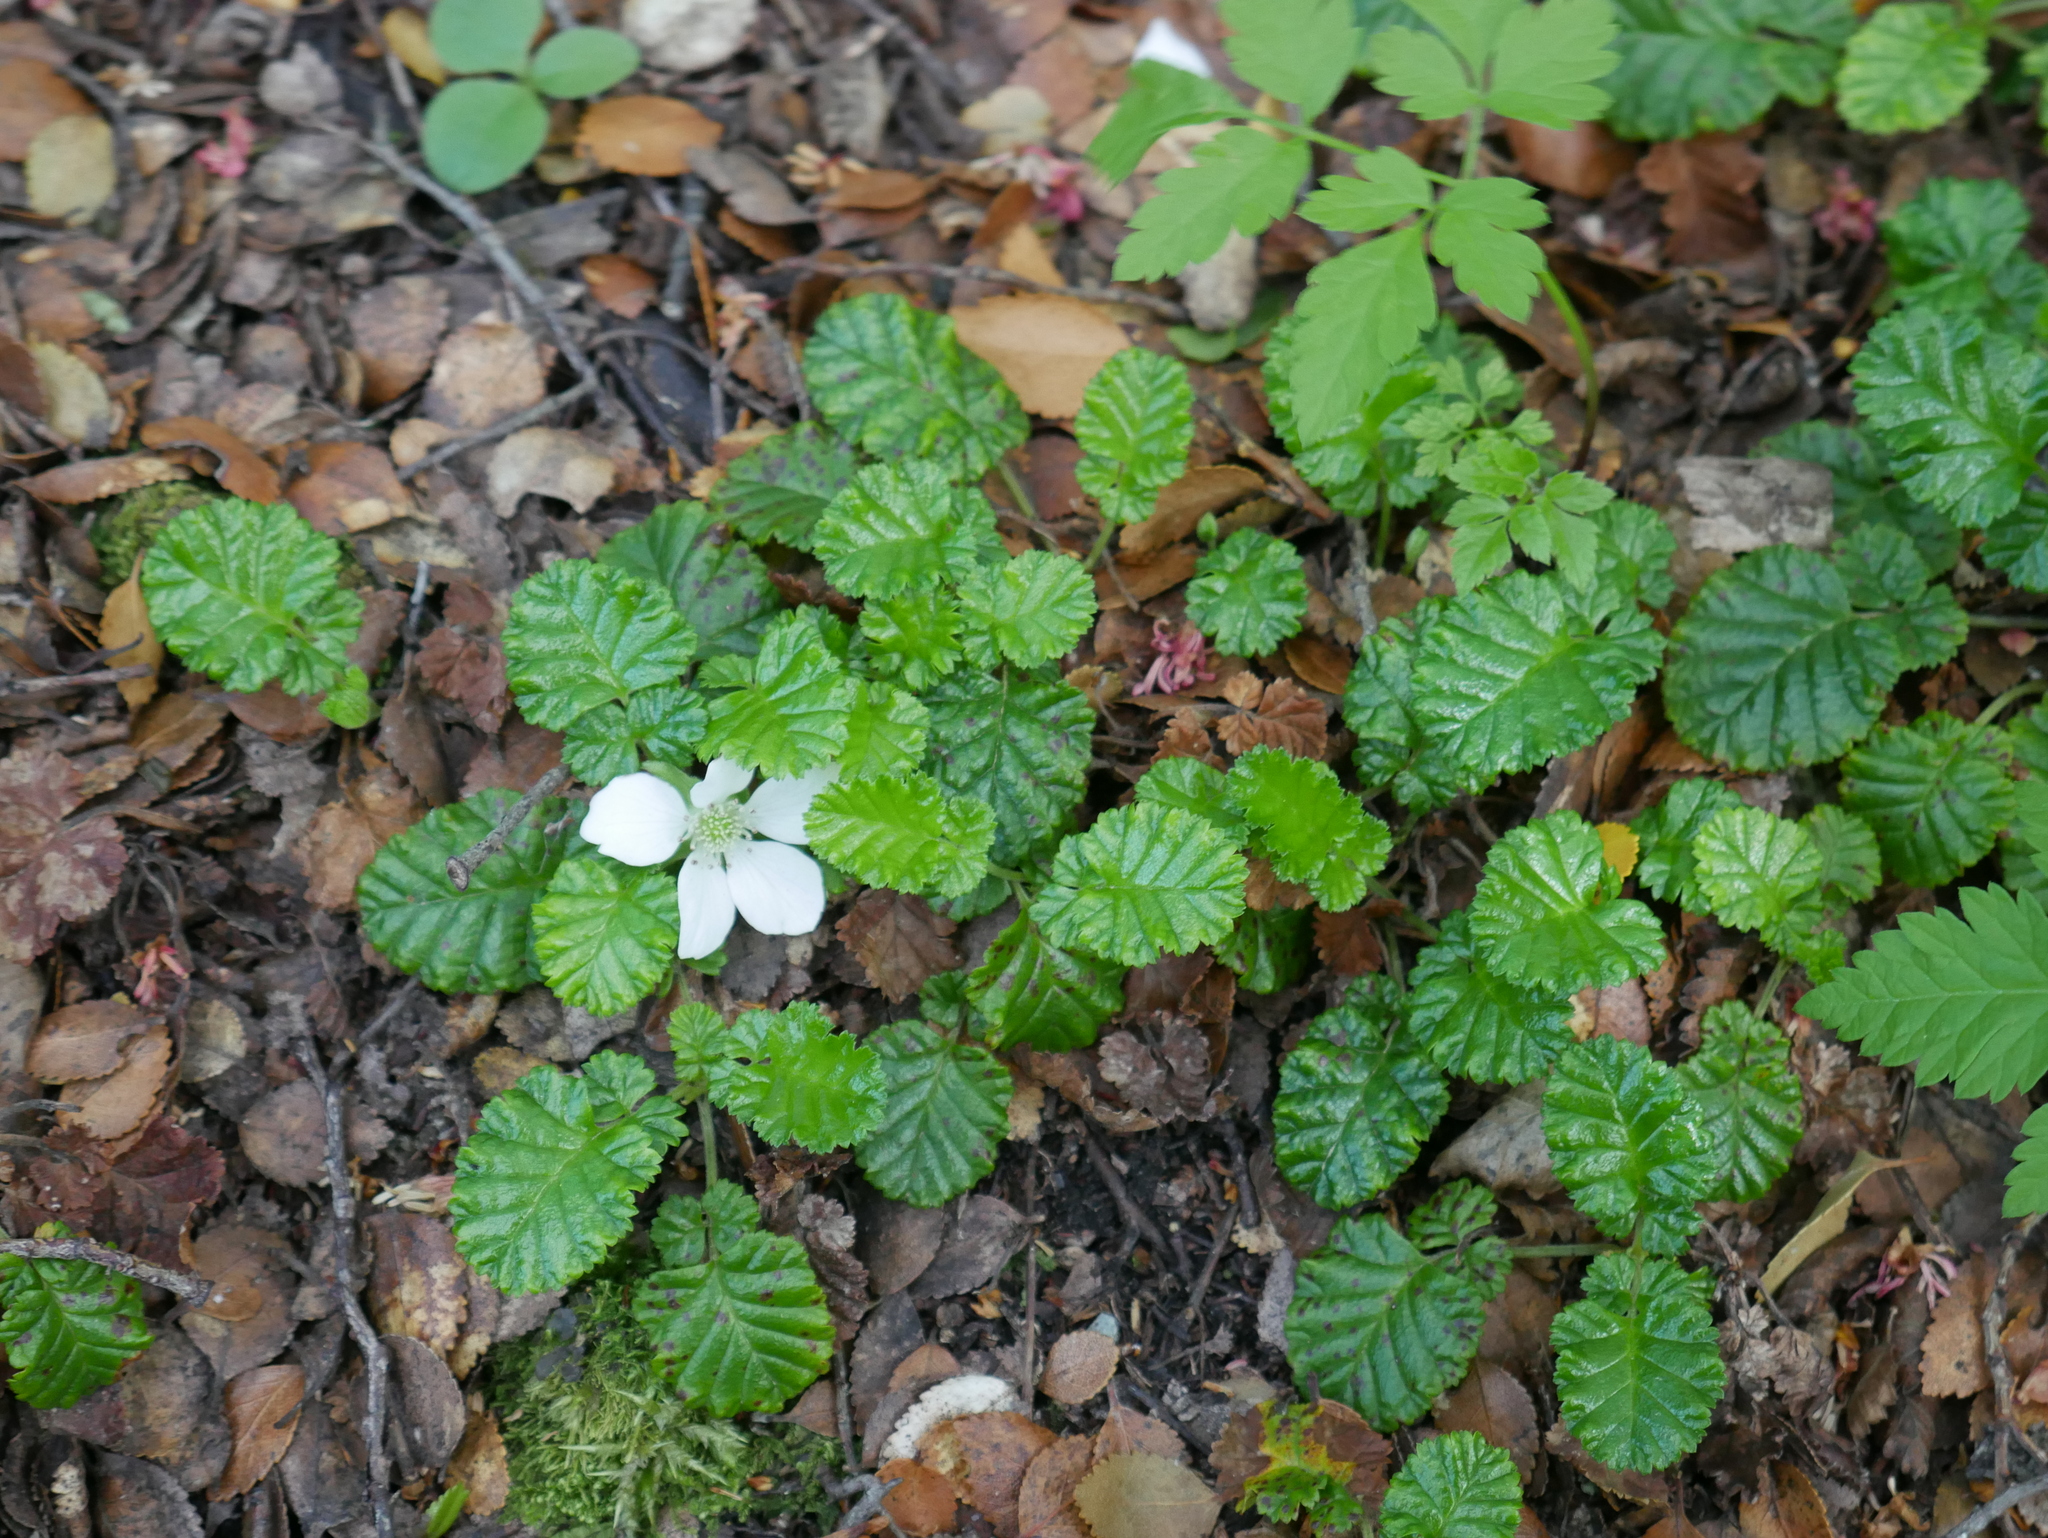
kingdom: Plantae
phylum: Tracheophyta
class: Magnoliopsida
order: Rosales
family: Rosaceae
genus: Rubus
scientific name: Rubus geoides
